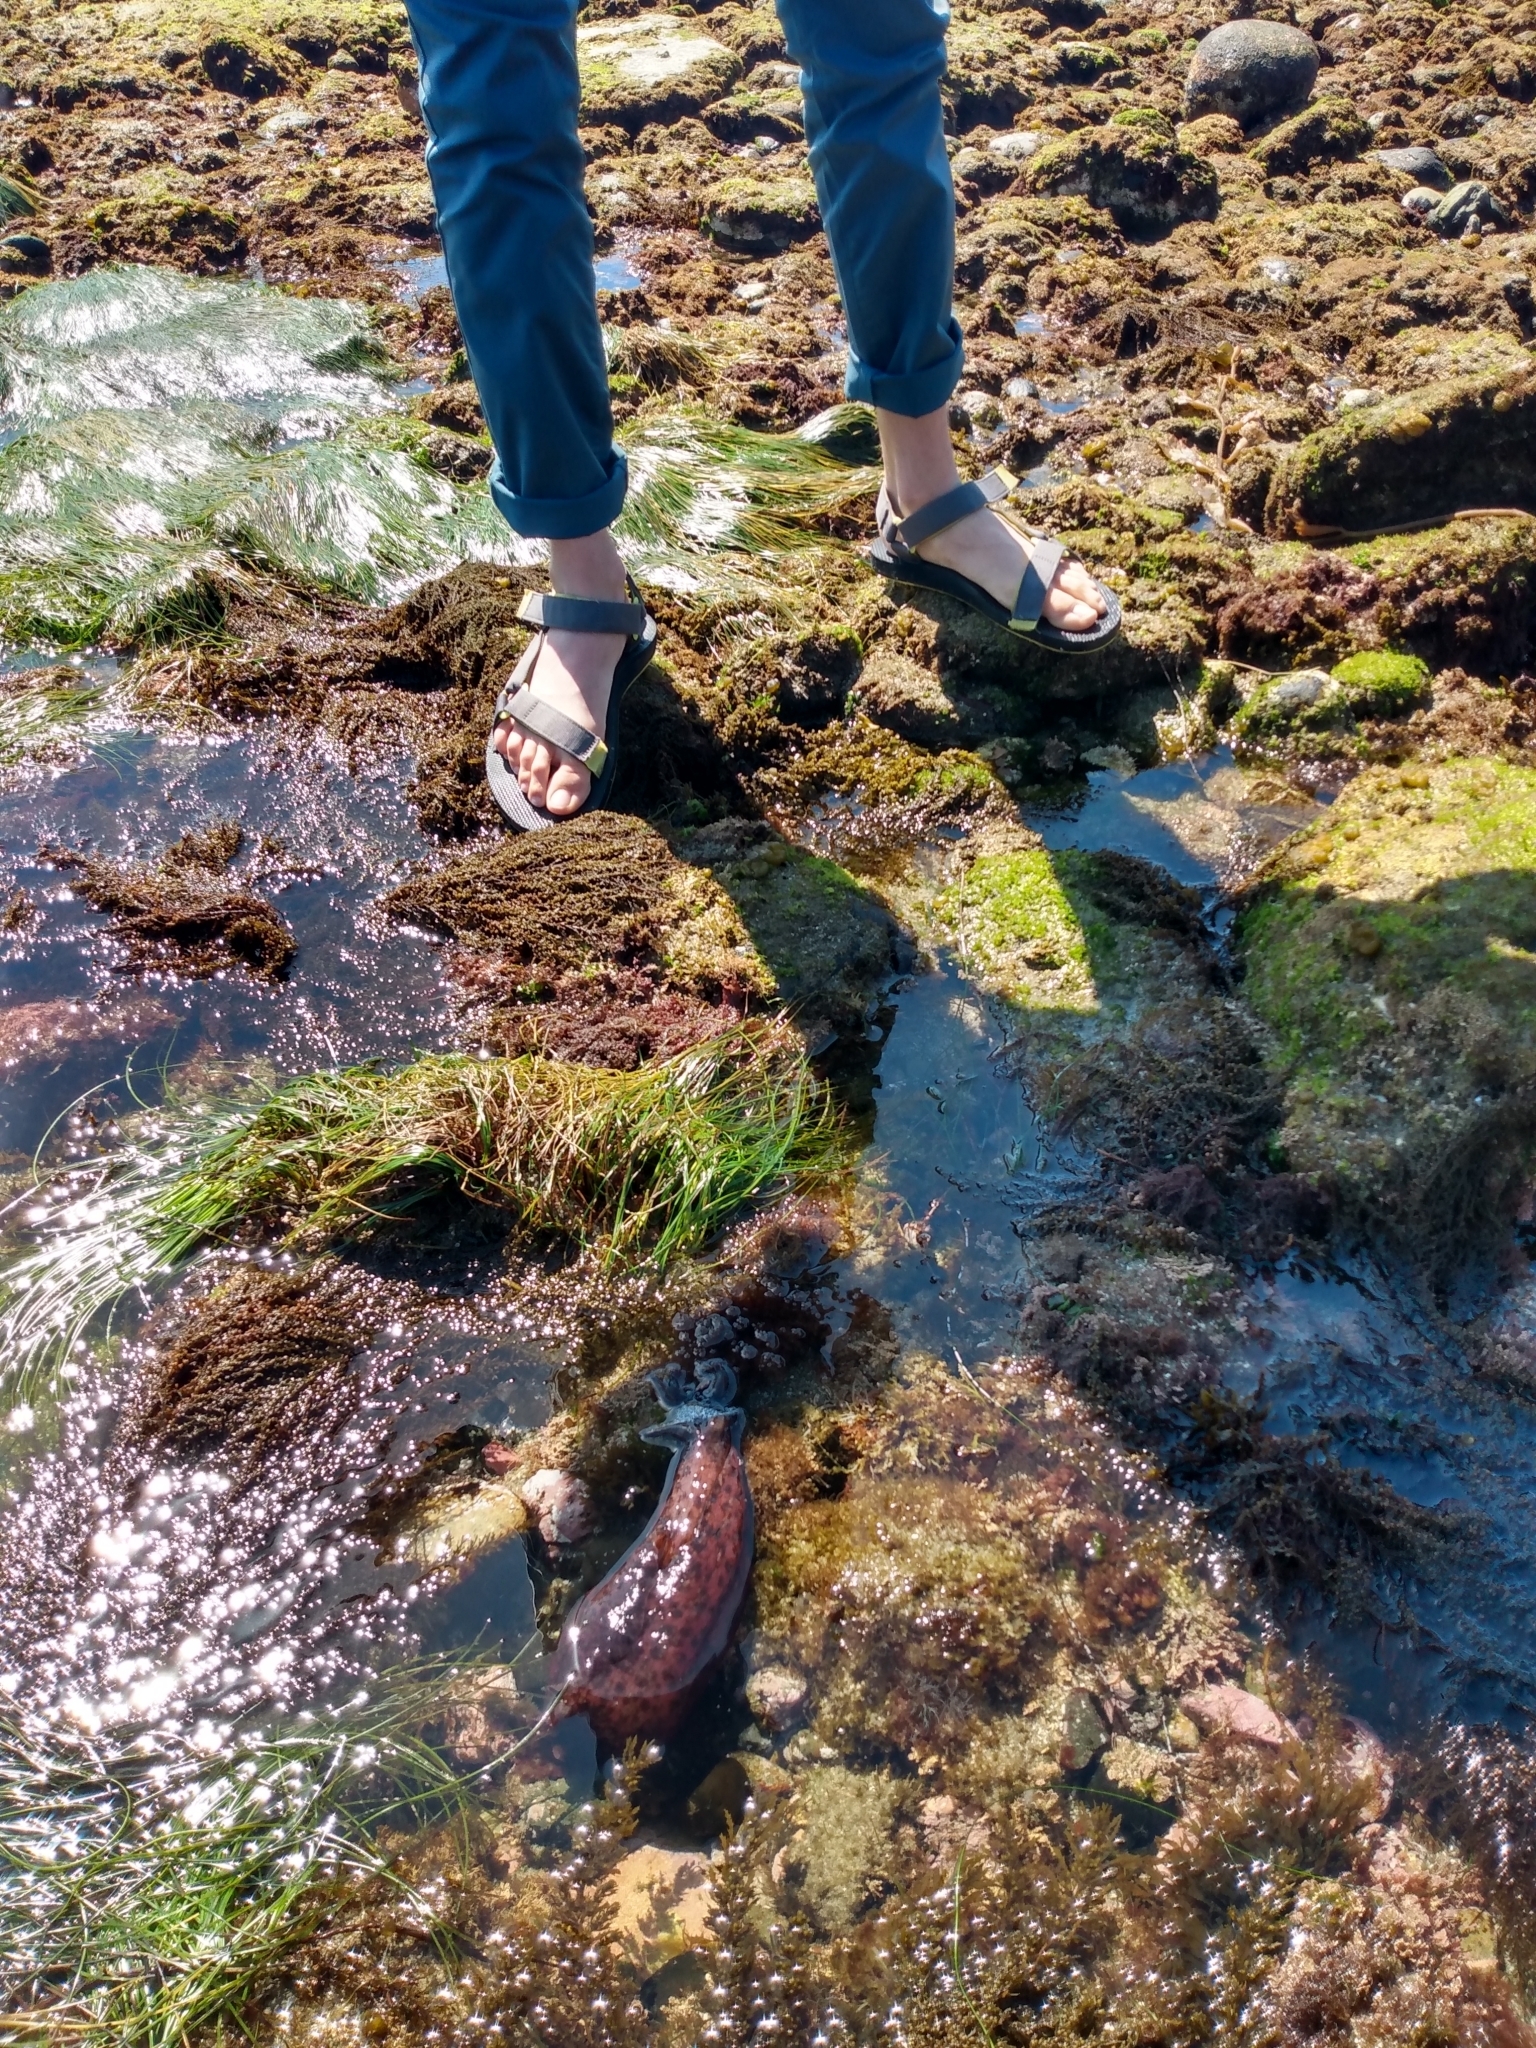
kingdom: Animalia
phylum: Mollusca
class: Gastropoda
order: Aplysiida
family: Aplysiidae
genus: Aplysia
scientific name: Aplysia californica
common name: California seahare
